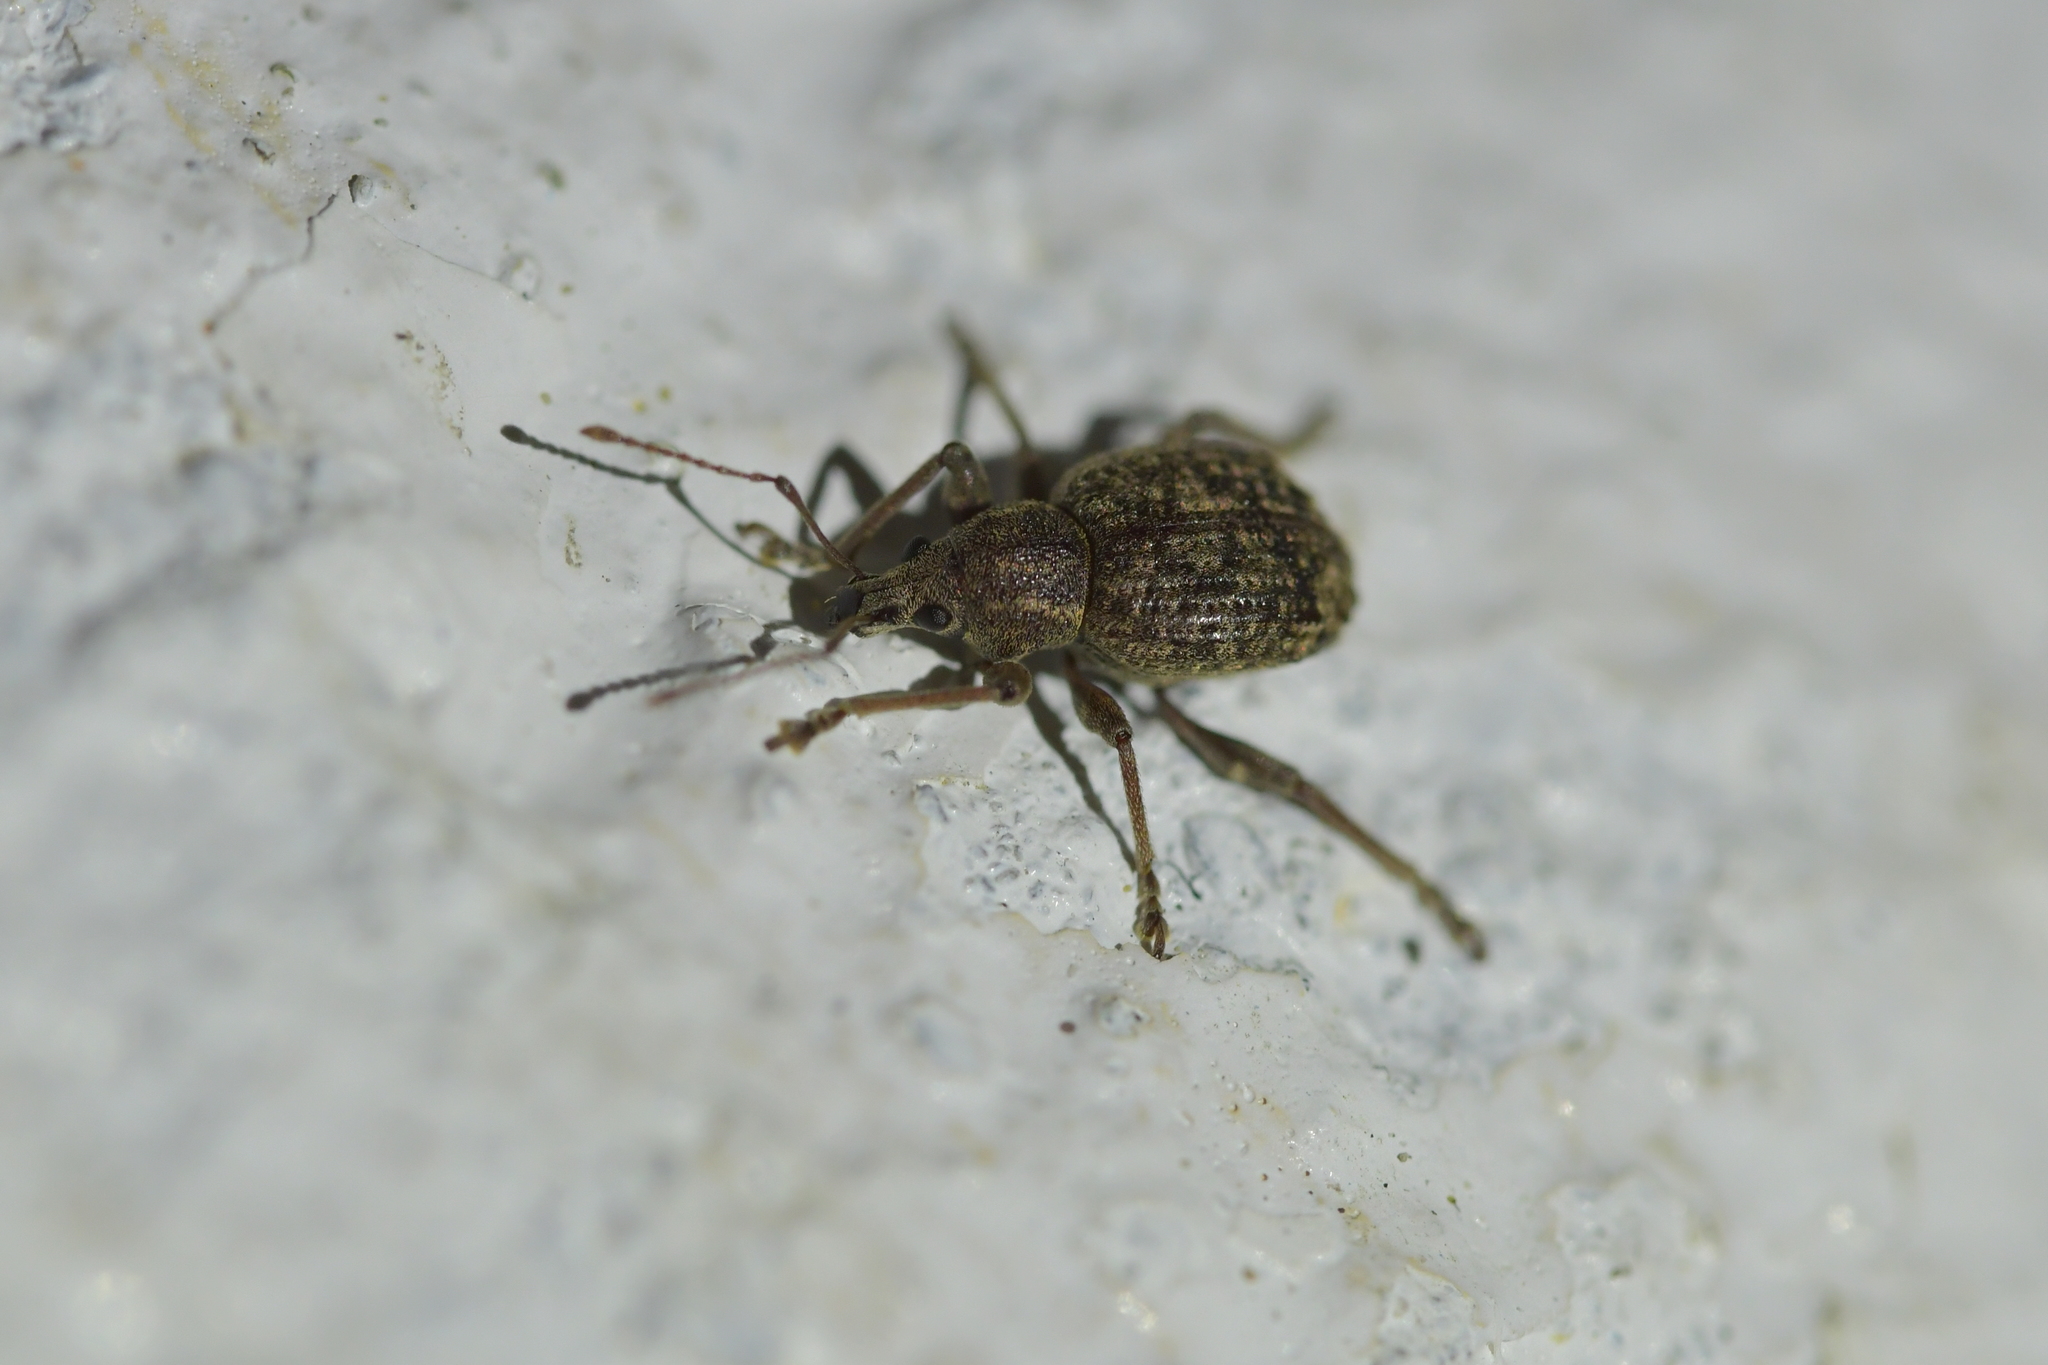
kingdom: Animalia
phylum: Arthropoda
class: Insecta
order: Coleoptera
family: Curculionidae
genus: Phlyctinus
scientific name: Phlyctinus callosus
